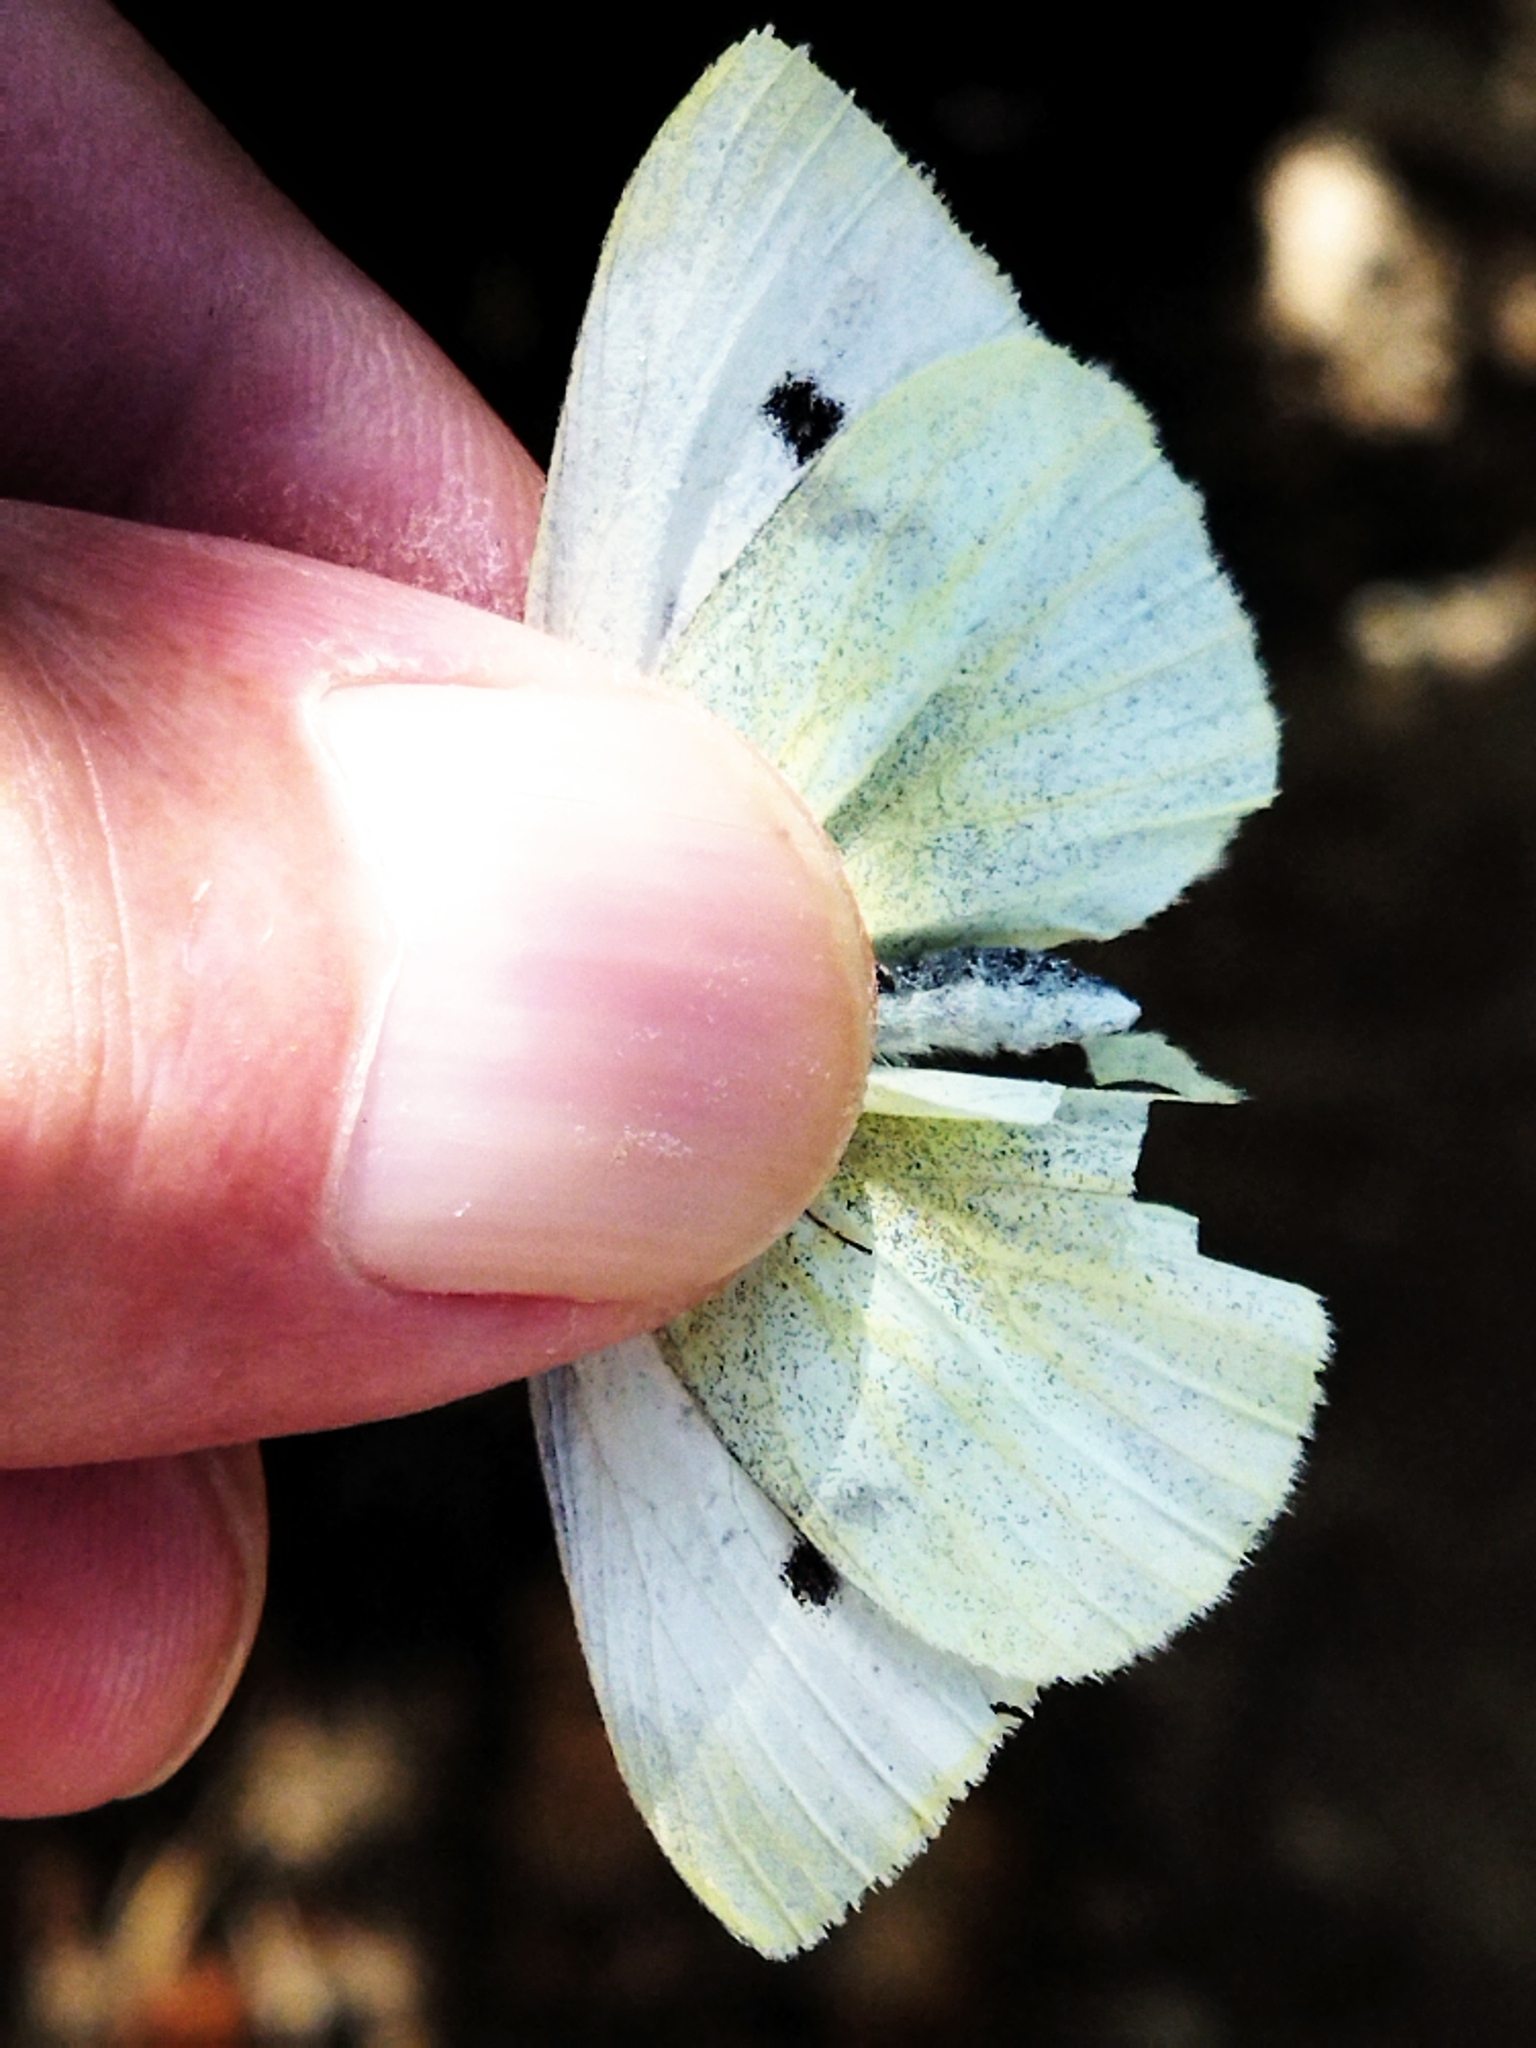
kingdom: Animalia
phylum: Arthropoda
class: Insecta
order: Lepidoptera
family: Pieridae
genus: Pieris
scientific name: Pieris rapae
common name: Small white
